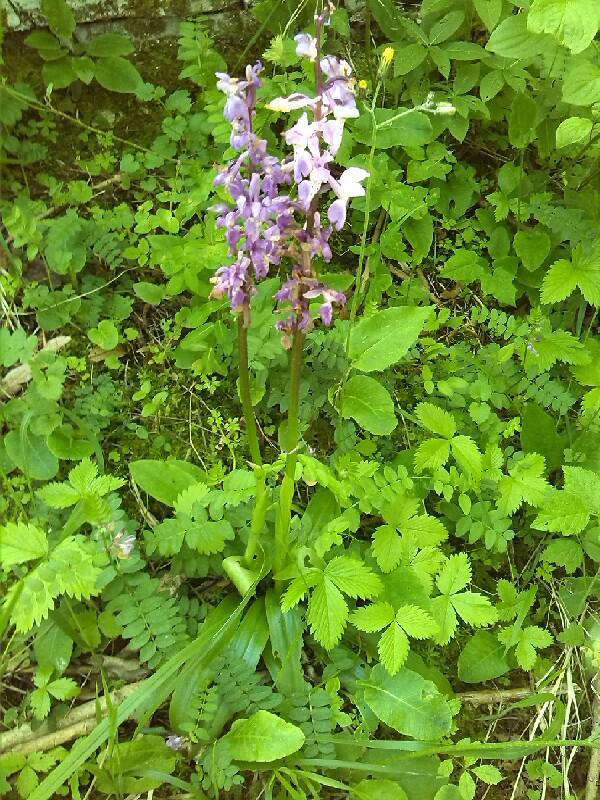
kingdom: Plantae
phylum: Tracheophyta
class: Liliopsida
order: Asparagales
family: Orchidaceae
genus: Orchis
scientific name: Orchis mascula
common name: Early-purple orchid
